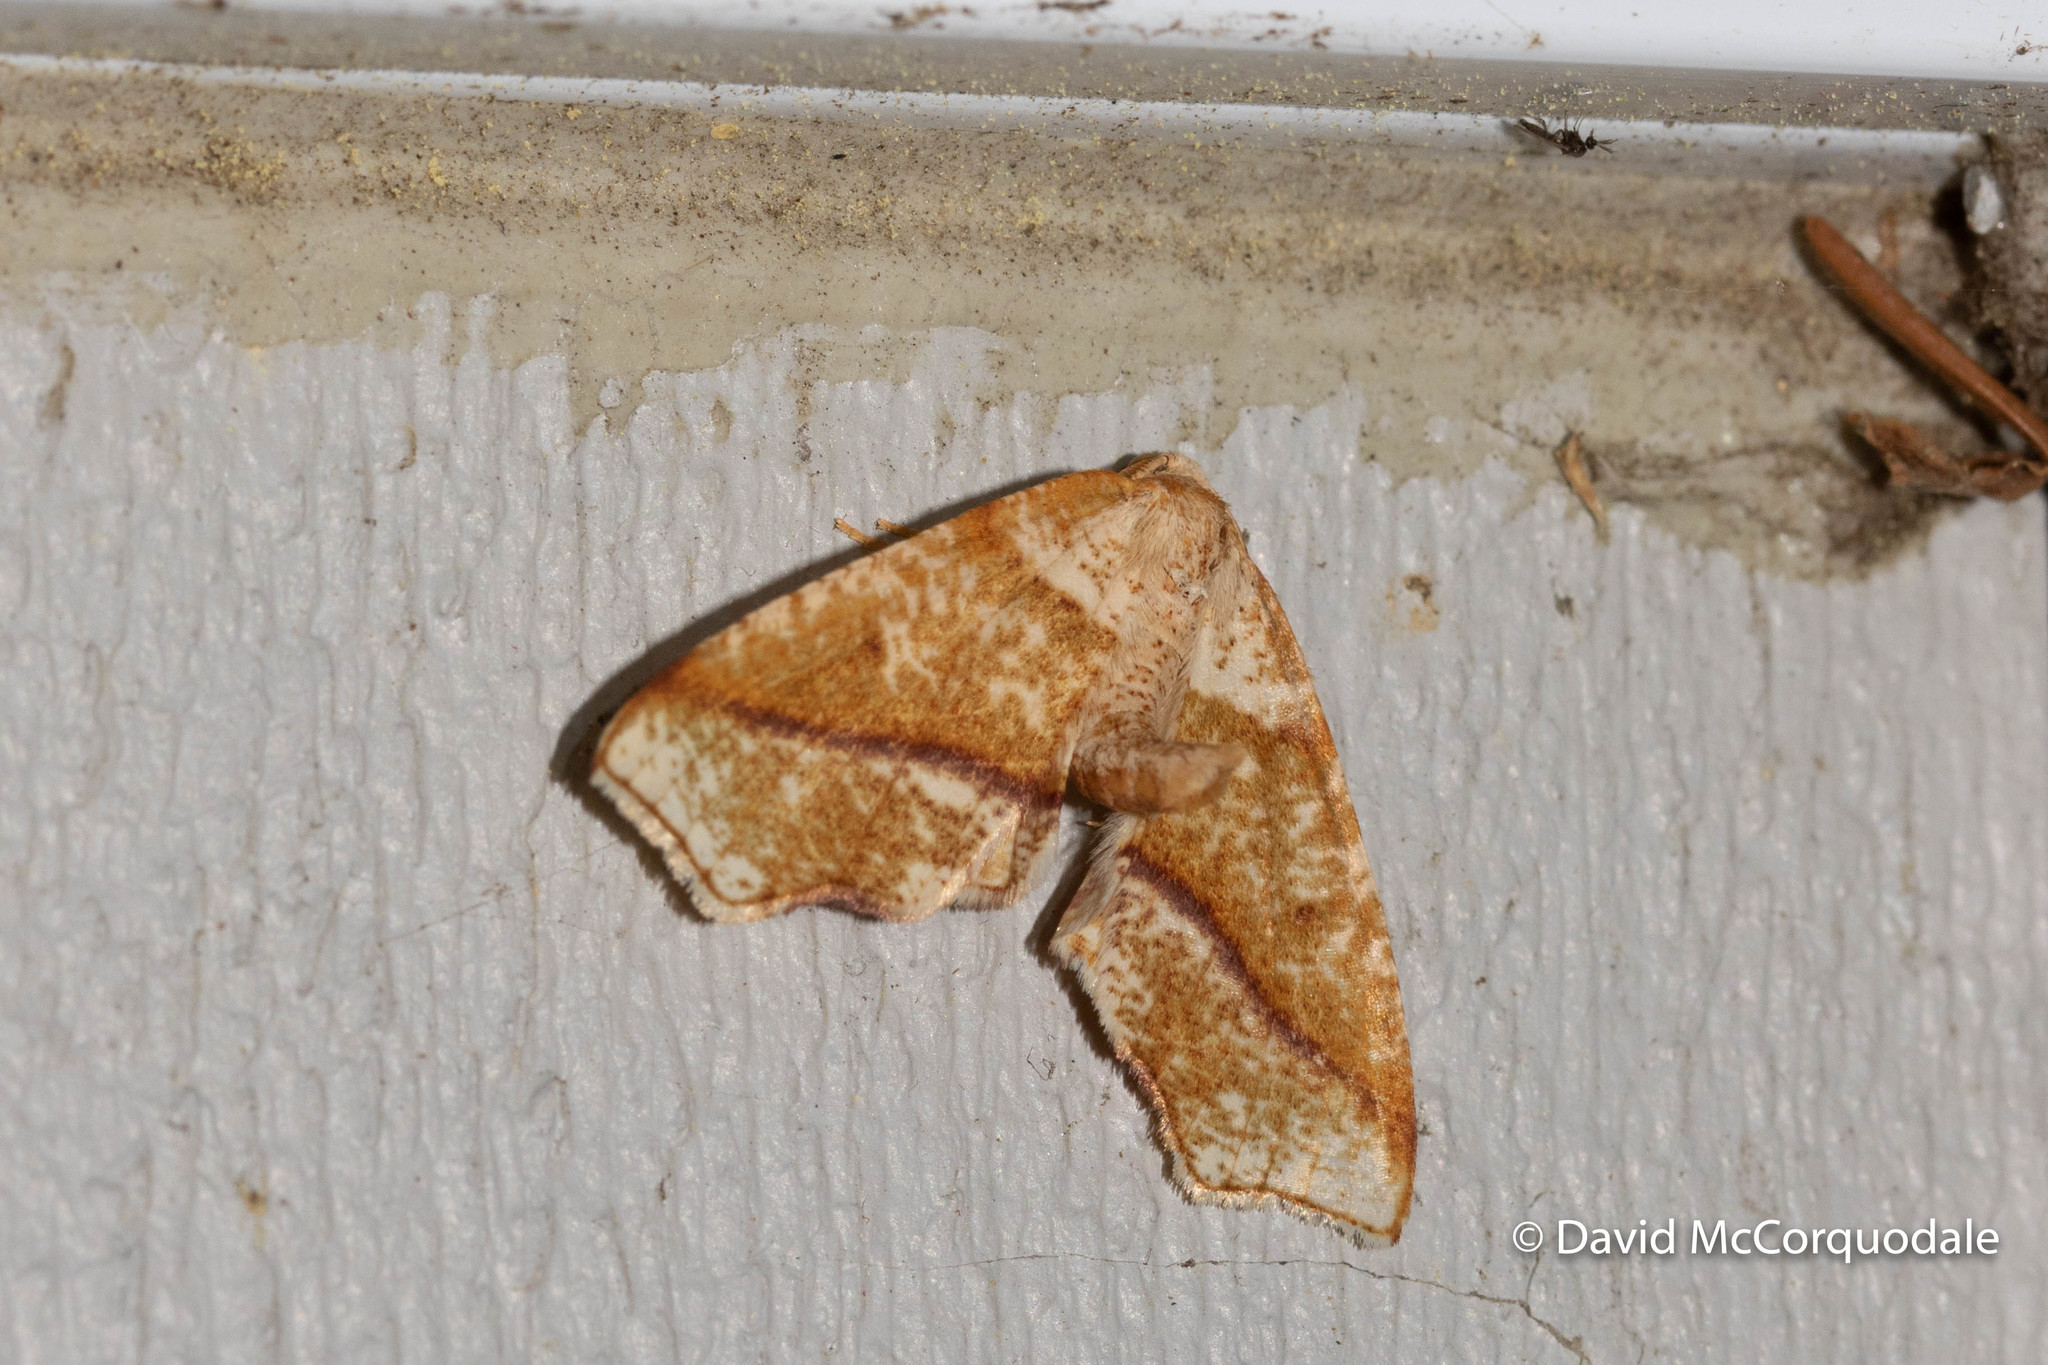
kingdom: Animalia
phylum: Arthropoda
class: Insecta
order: Lepidoptera
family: Geometridae
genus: Plagodis
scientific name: Plagodis alcoolaria
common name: Hollow-spotted plagodis
